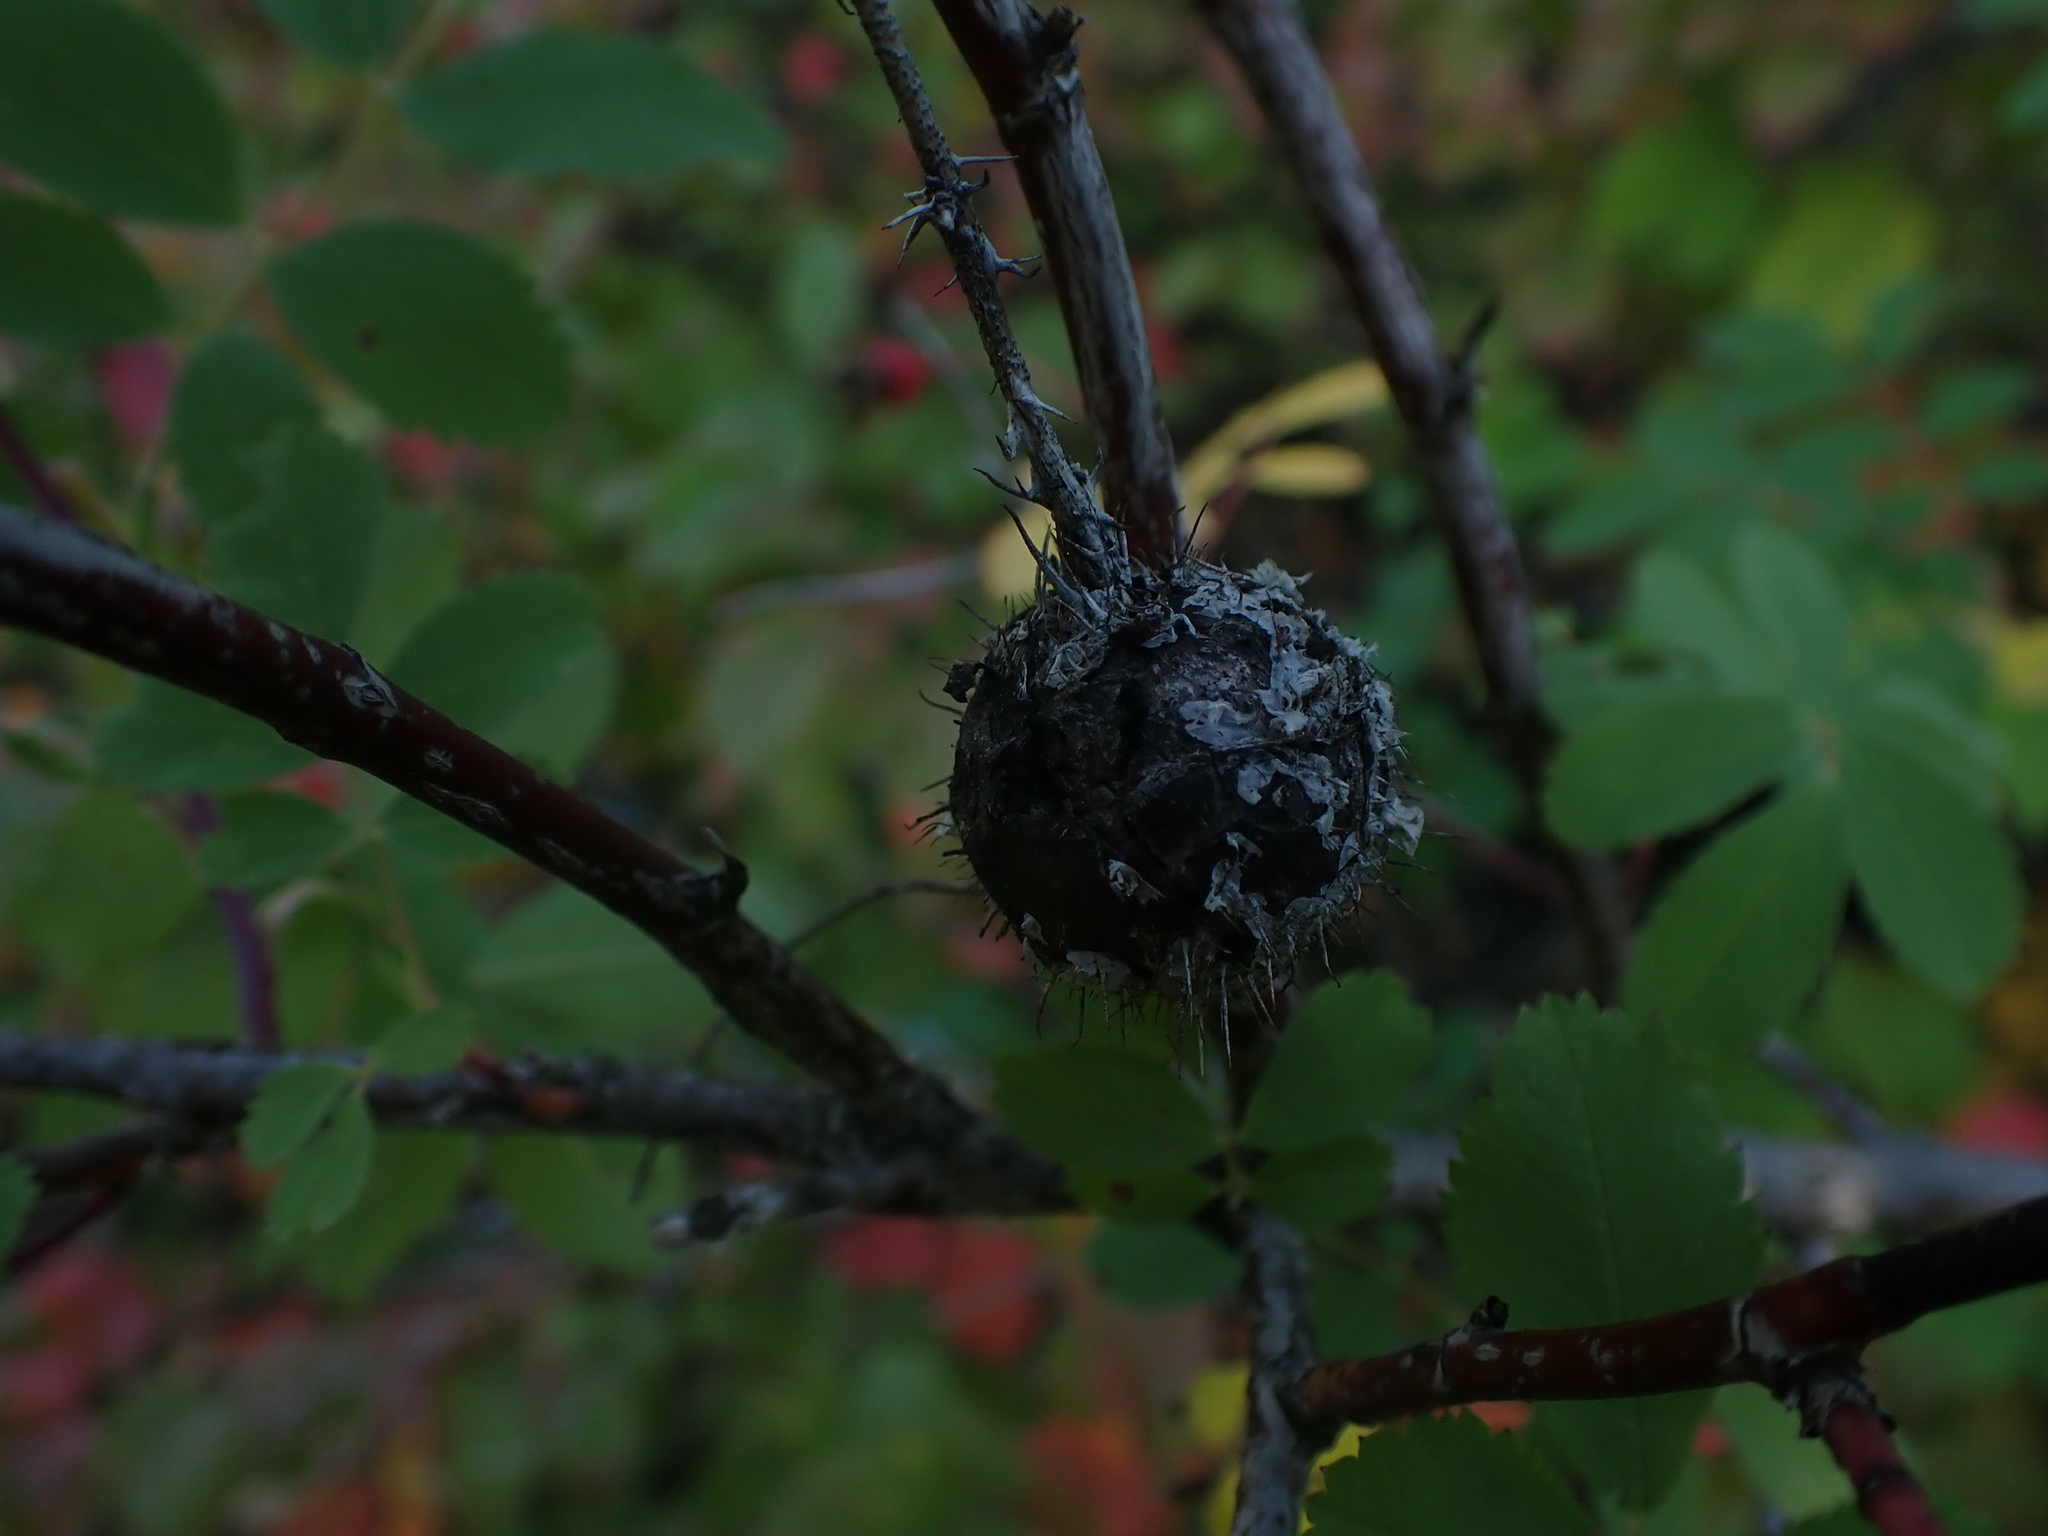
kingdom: Animalia
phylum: Arthropoda
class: Insecta
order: Hymenoptera
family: Cynipidae
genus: Diplolepis
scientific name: Diplolepis spinosa
